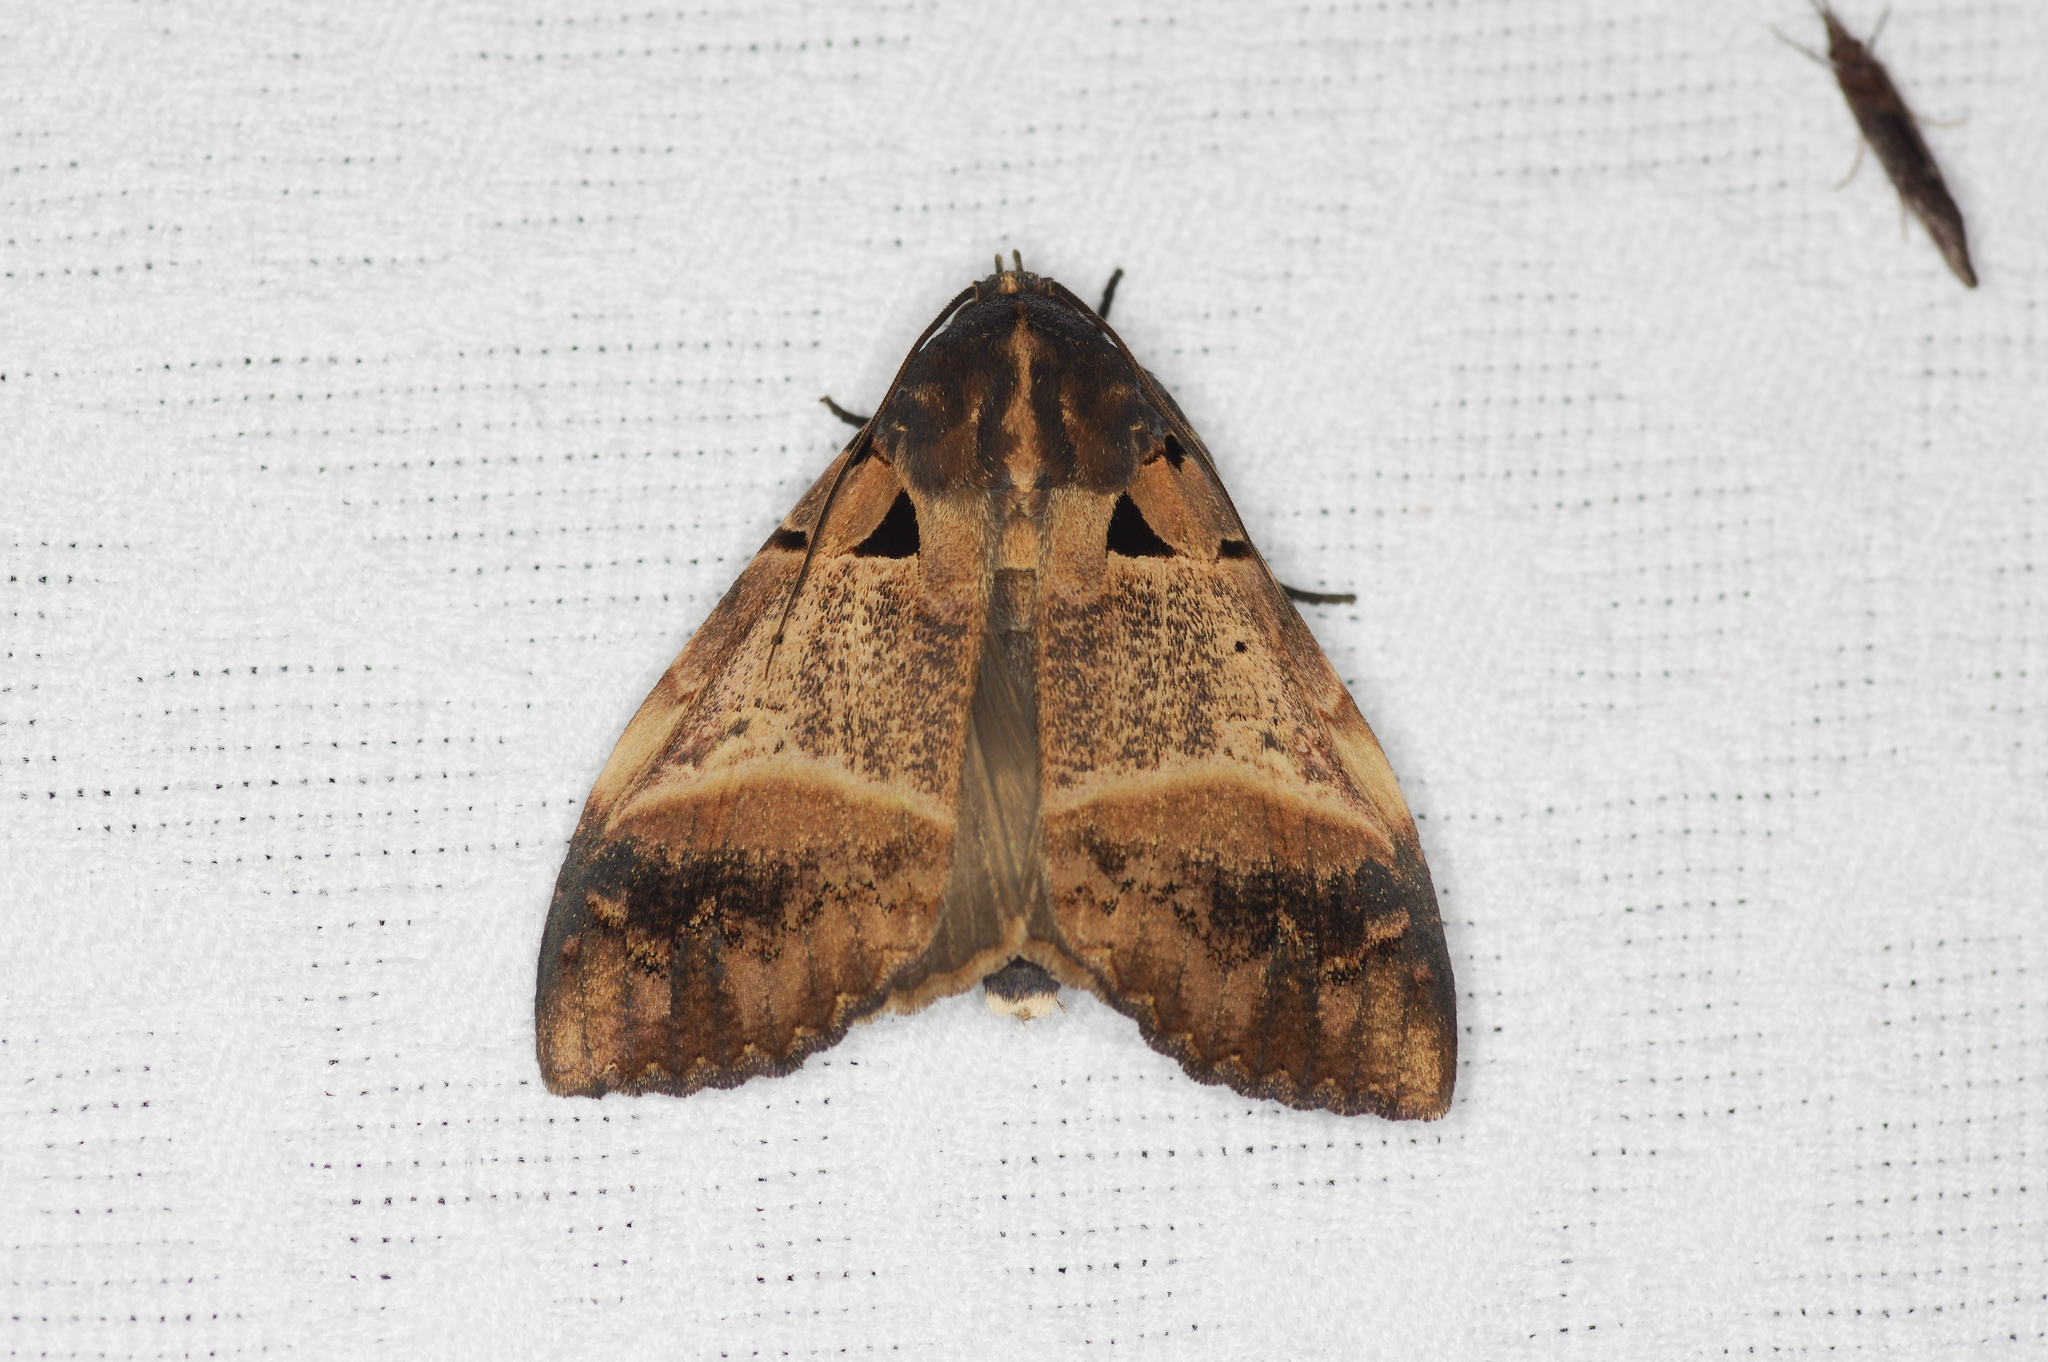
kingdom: Animalia
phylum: Arthropoda
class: Insecta
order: Lepidoptera
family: Erebidae
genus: Serrodes
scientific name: Serrodes campana
